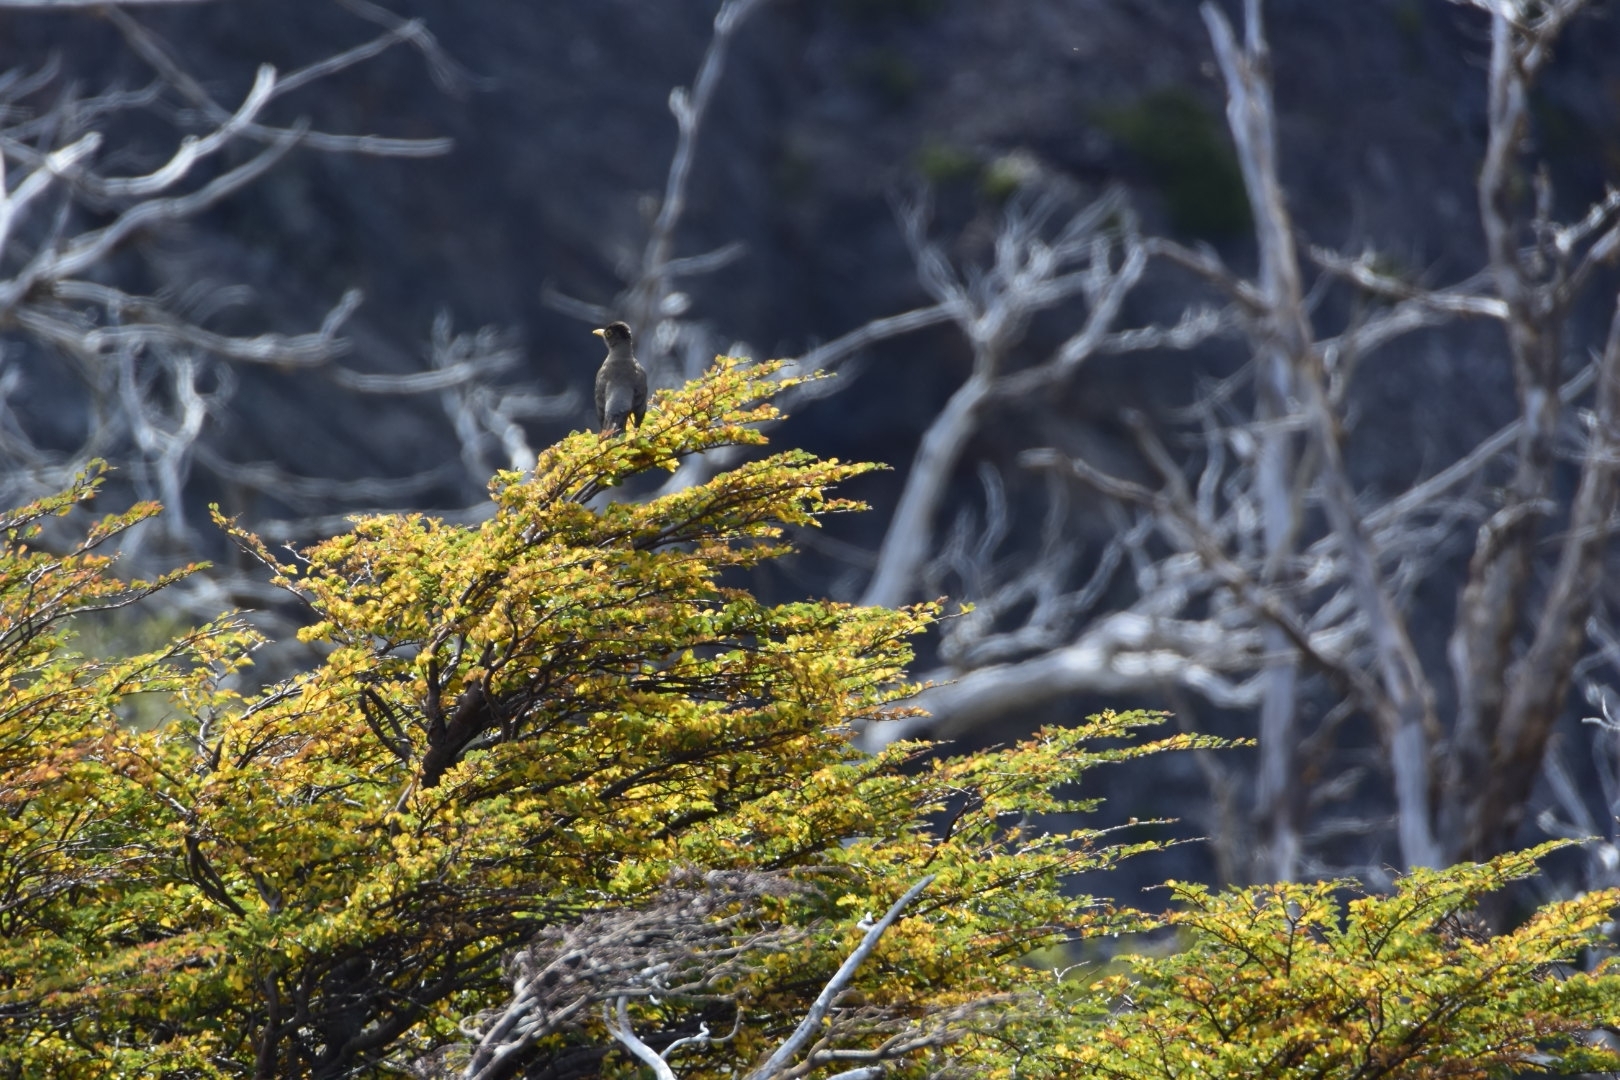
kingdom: Animalia
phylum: Chordata
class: Aves
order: Passeriformes
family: Turdidae
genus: Turdus
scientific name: Turdus falcklandii
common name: Austral thrush
